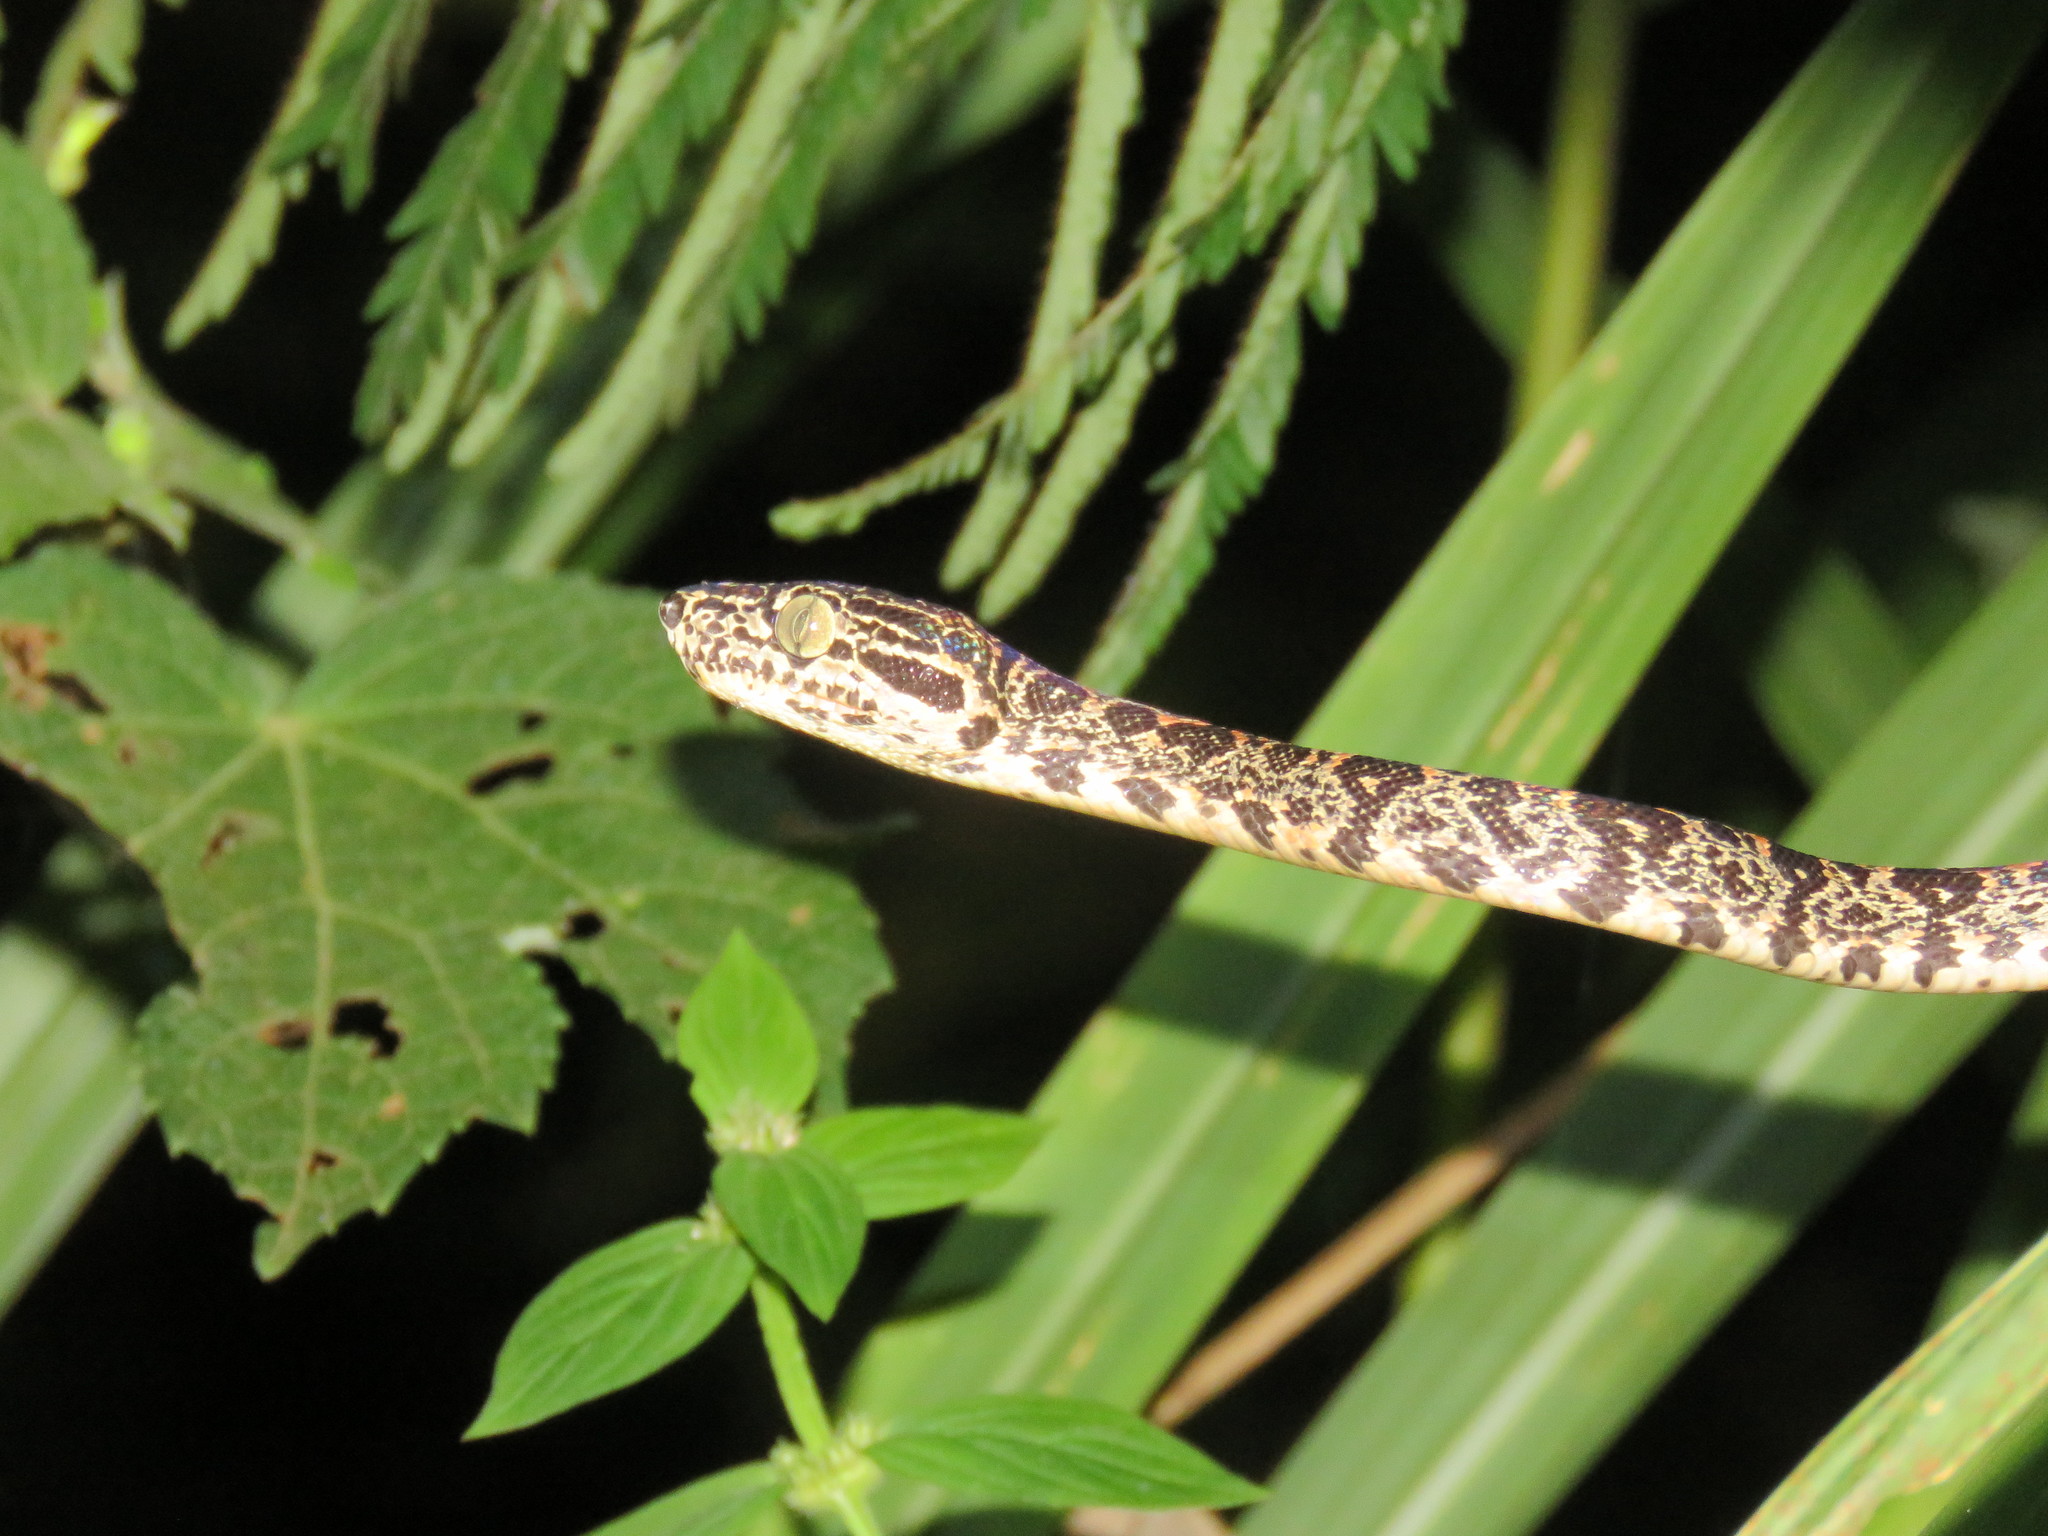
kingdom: Animalia
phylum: Chordata
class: Squamata
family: Boidae
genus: Corallus
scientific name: Corallus hortulana
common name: Garden tree boa
